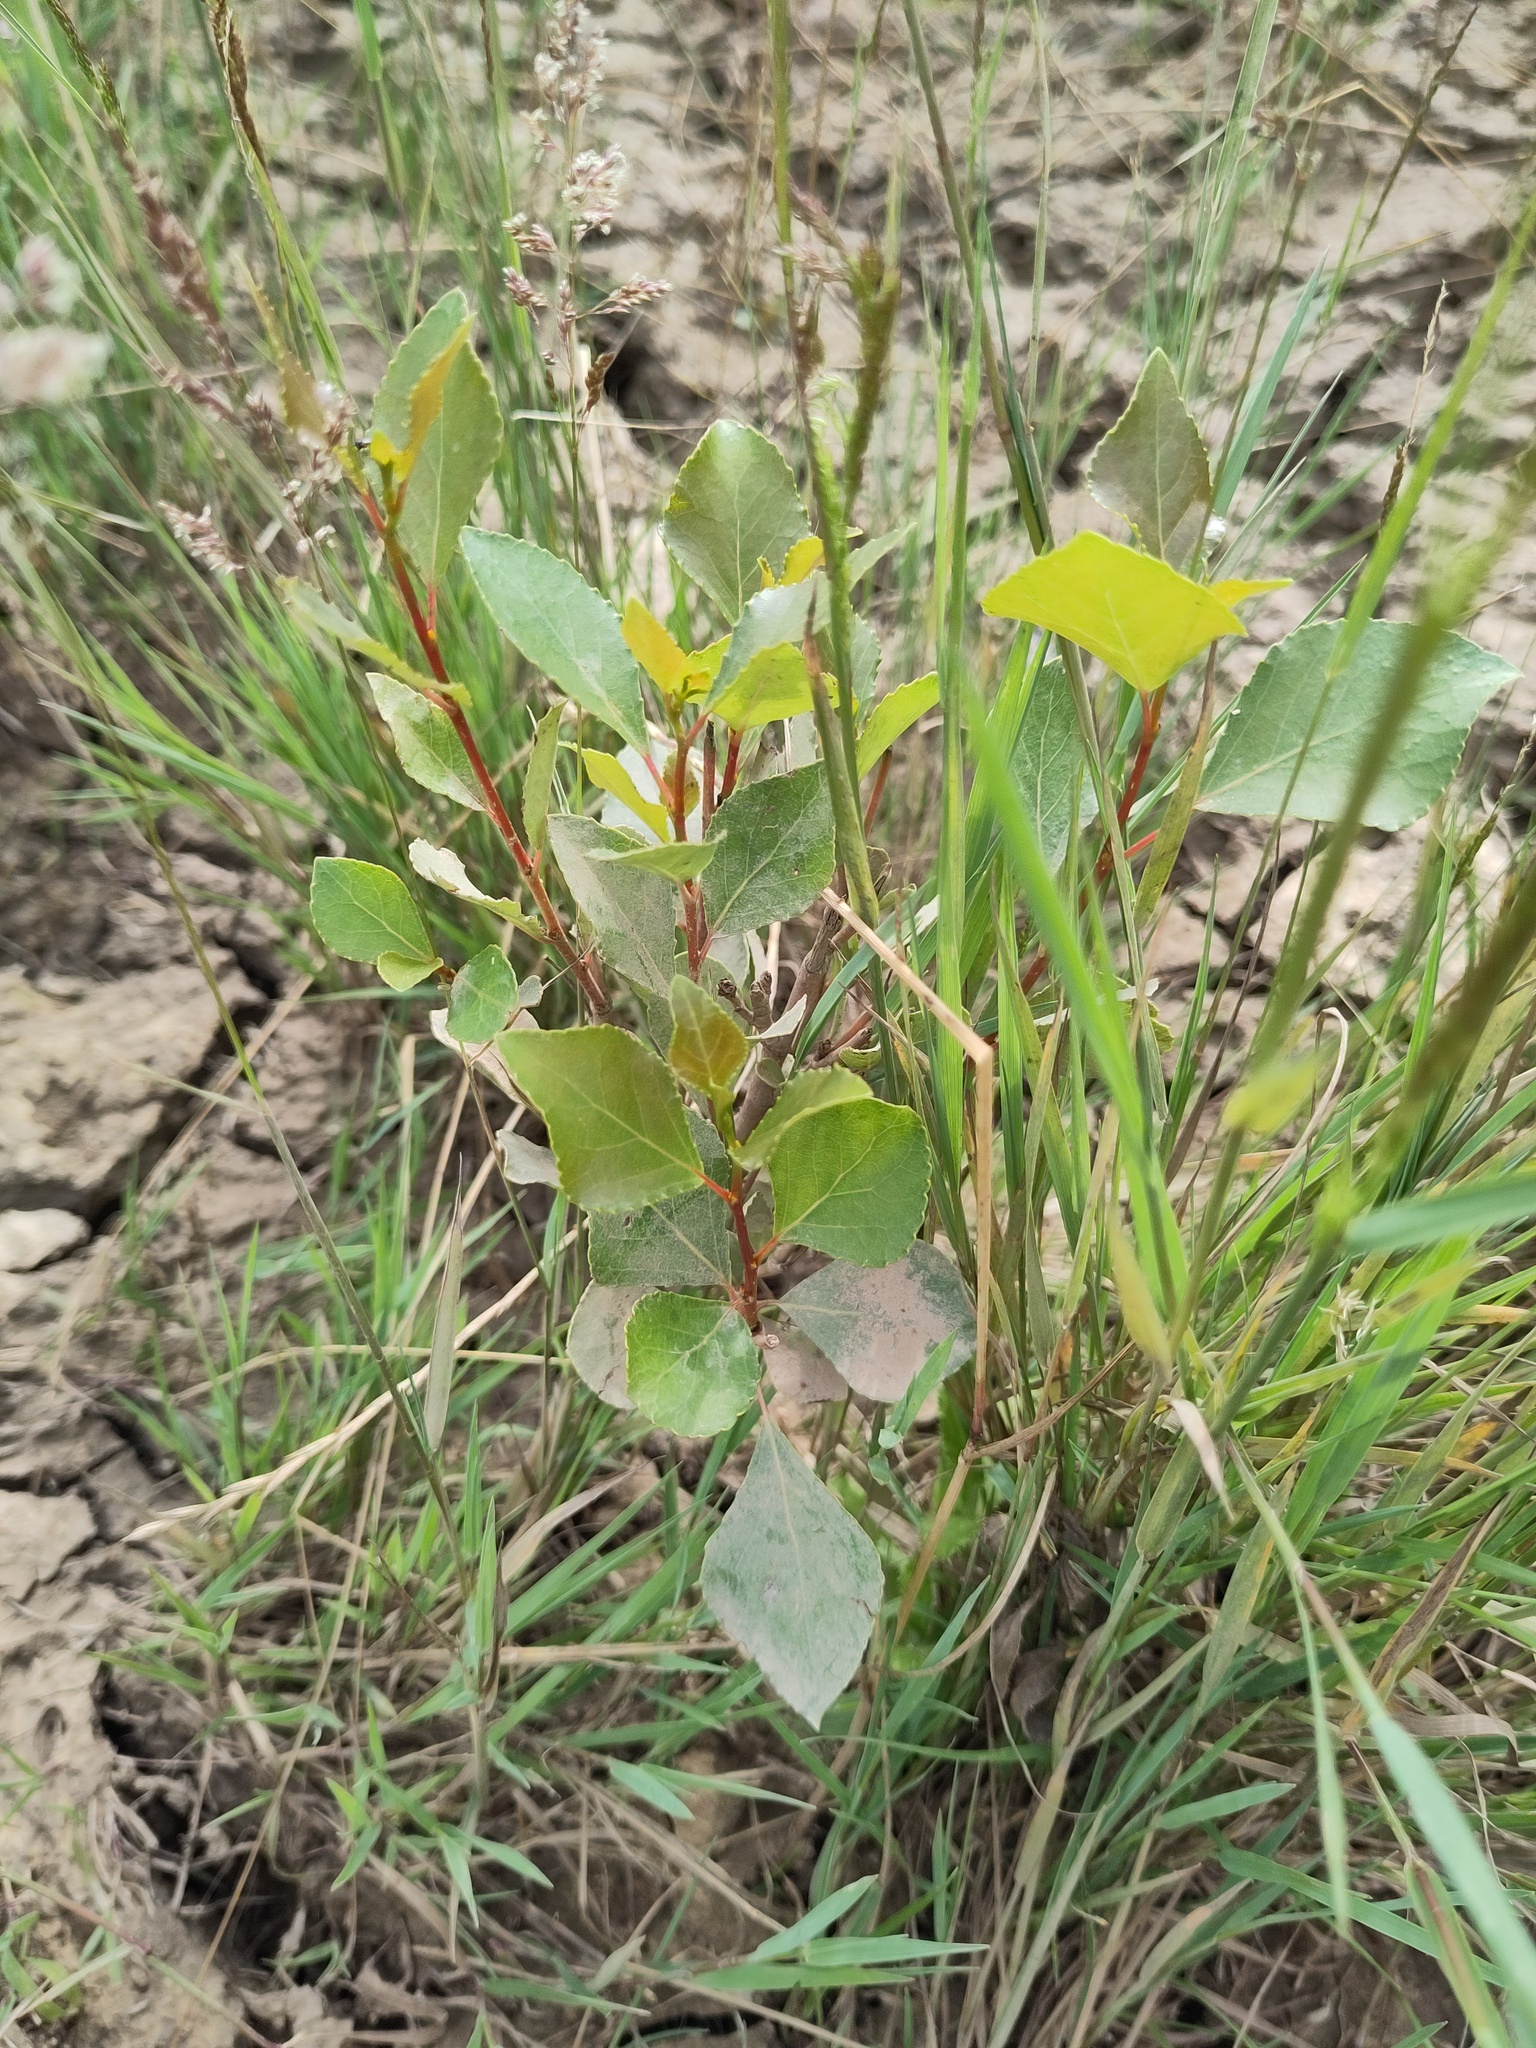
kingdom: Plantae
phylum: Tracheophyta
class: Magnoliopsida
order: Malpighiales
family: Salicaceae
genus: Populus
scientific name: Populus nigra
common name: Black poplar
